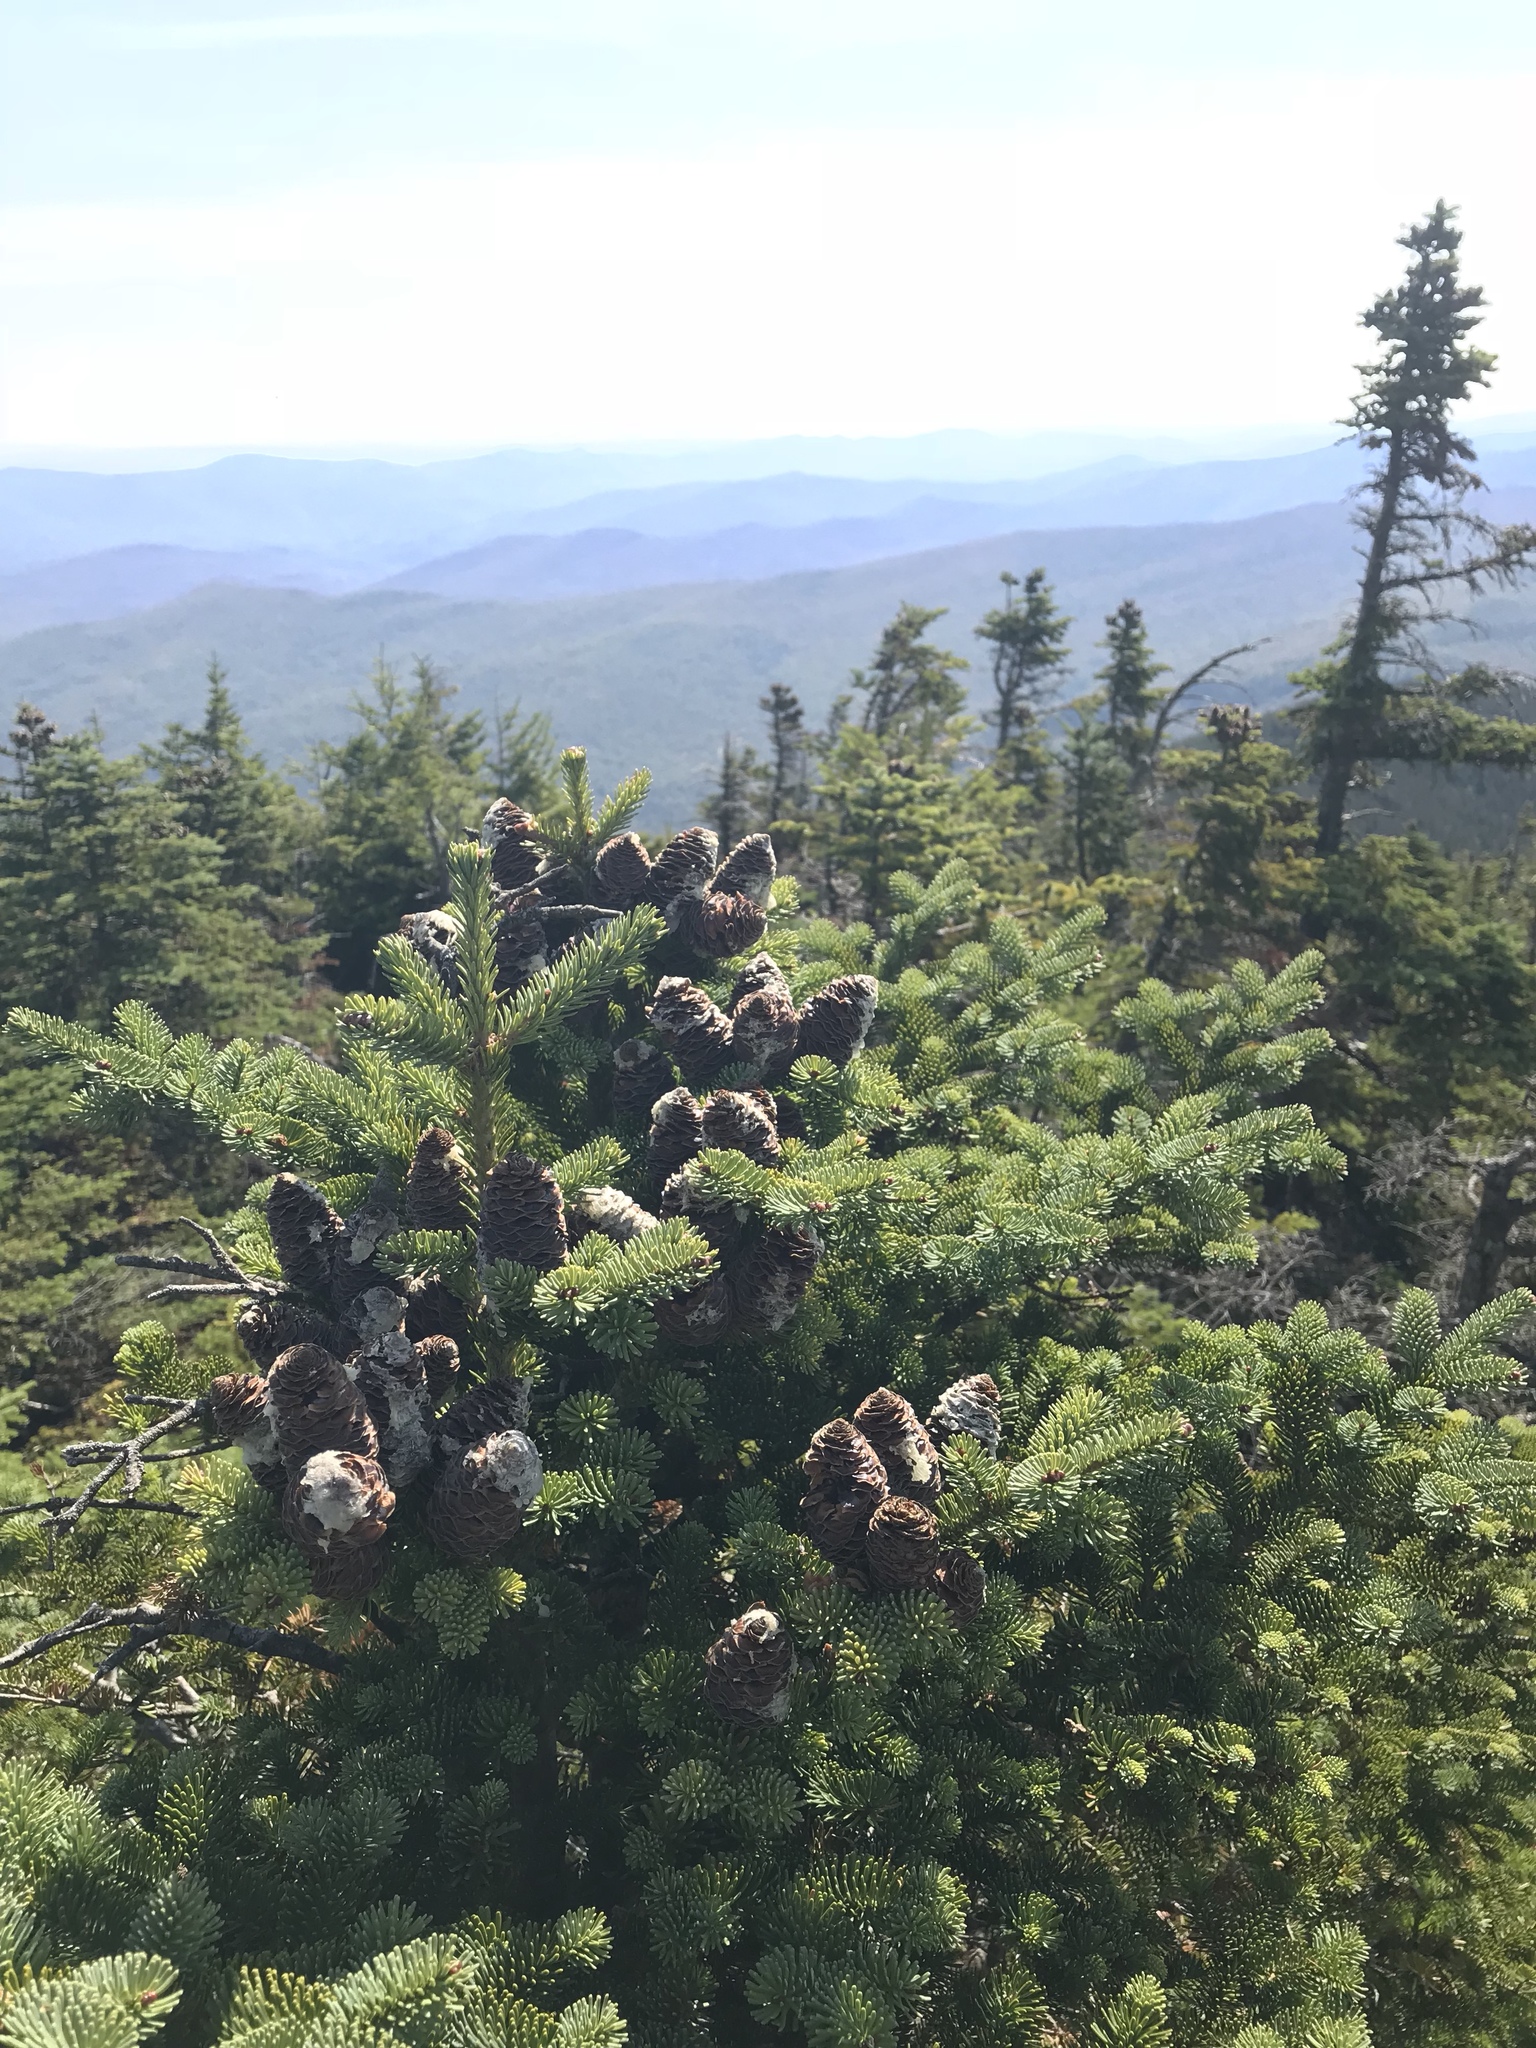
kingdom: Plantae
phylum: Tracheophyta
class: Pinopsida
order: Pinales
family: Pinaceae
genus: Abies
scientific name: Abies balsamea
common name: Balsam fir
